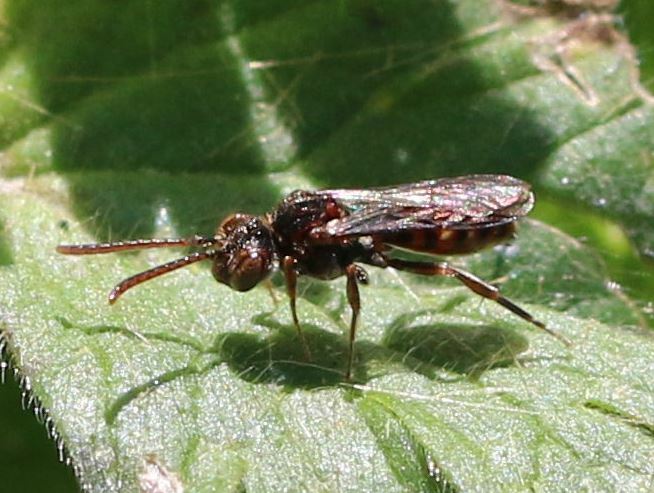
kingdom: Animalia
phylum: Arthropoda
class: Insecta
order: Hymenoptera
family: Apidae
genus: Nomada
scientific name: Nomada
